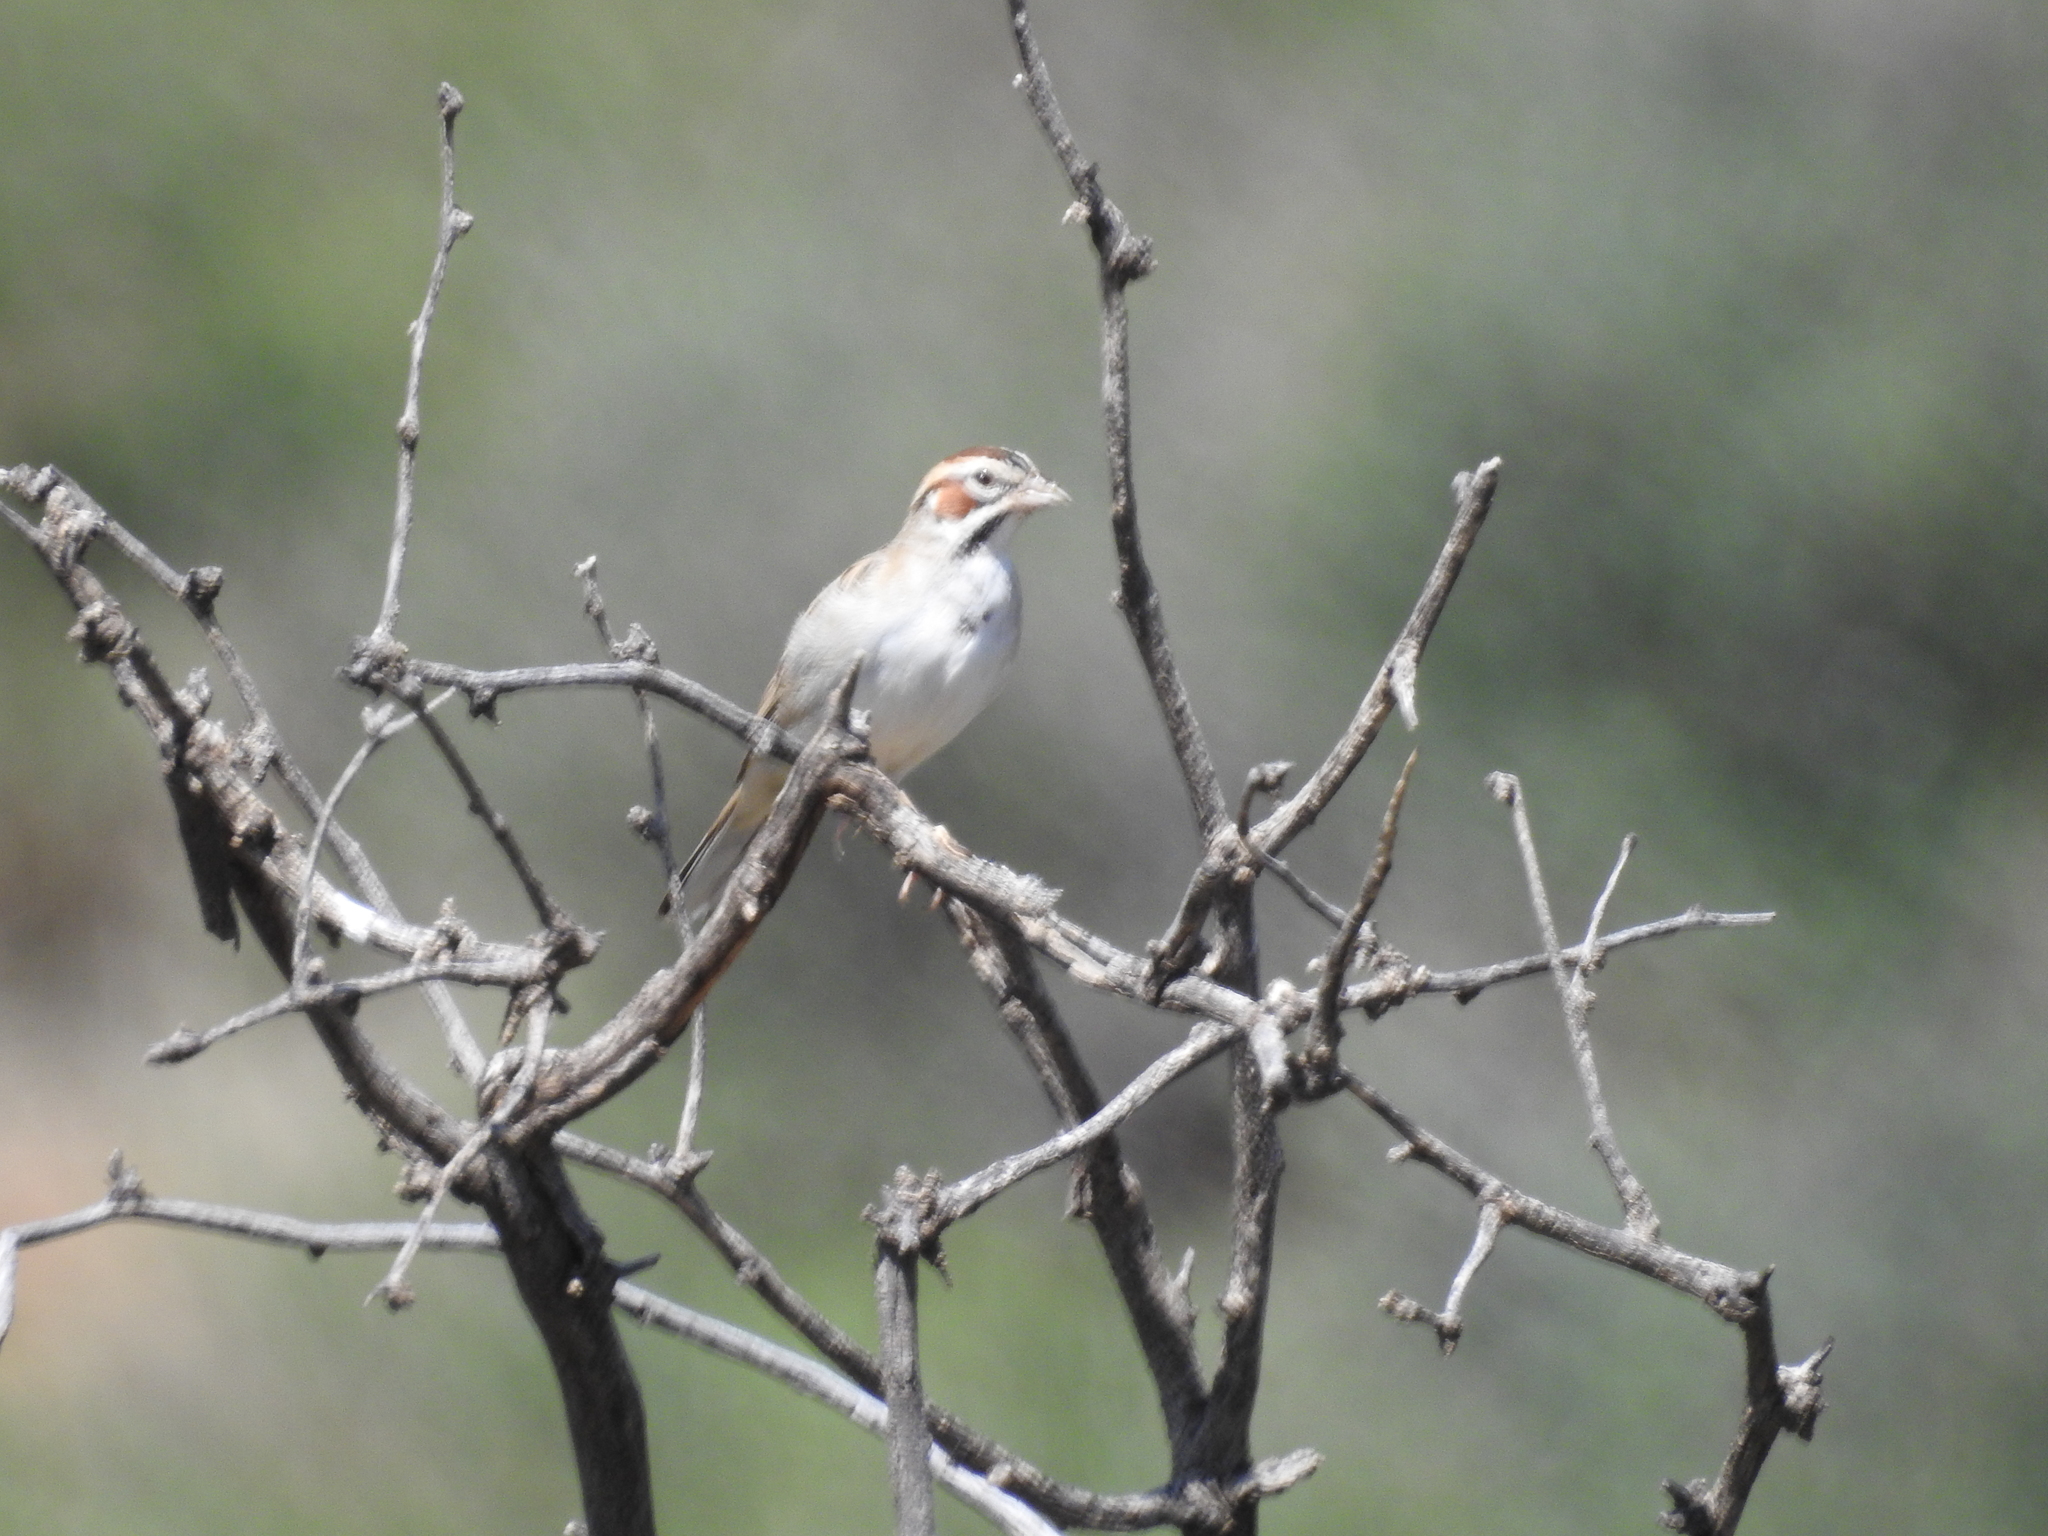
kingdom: Animalia
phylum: Chordata
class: Aves
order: Passeriformes
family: Passerellidae
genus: Chondestes
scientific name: Chondestes grammacus
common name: Lark sparrow
